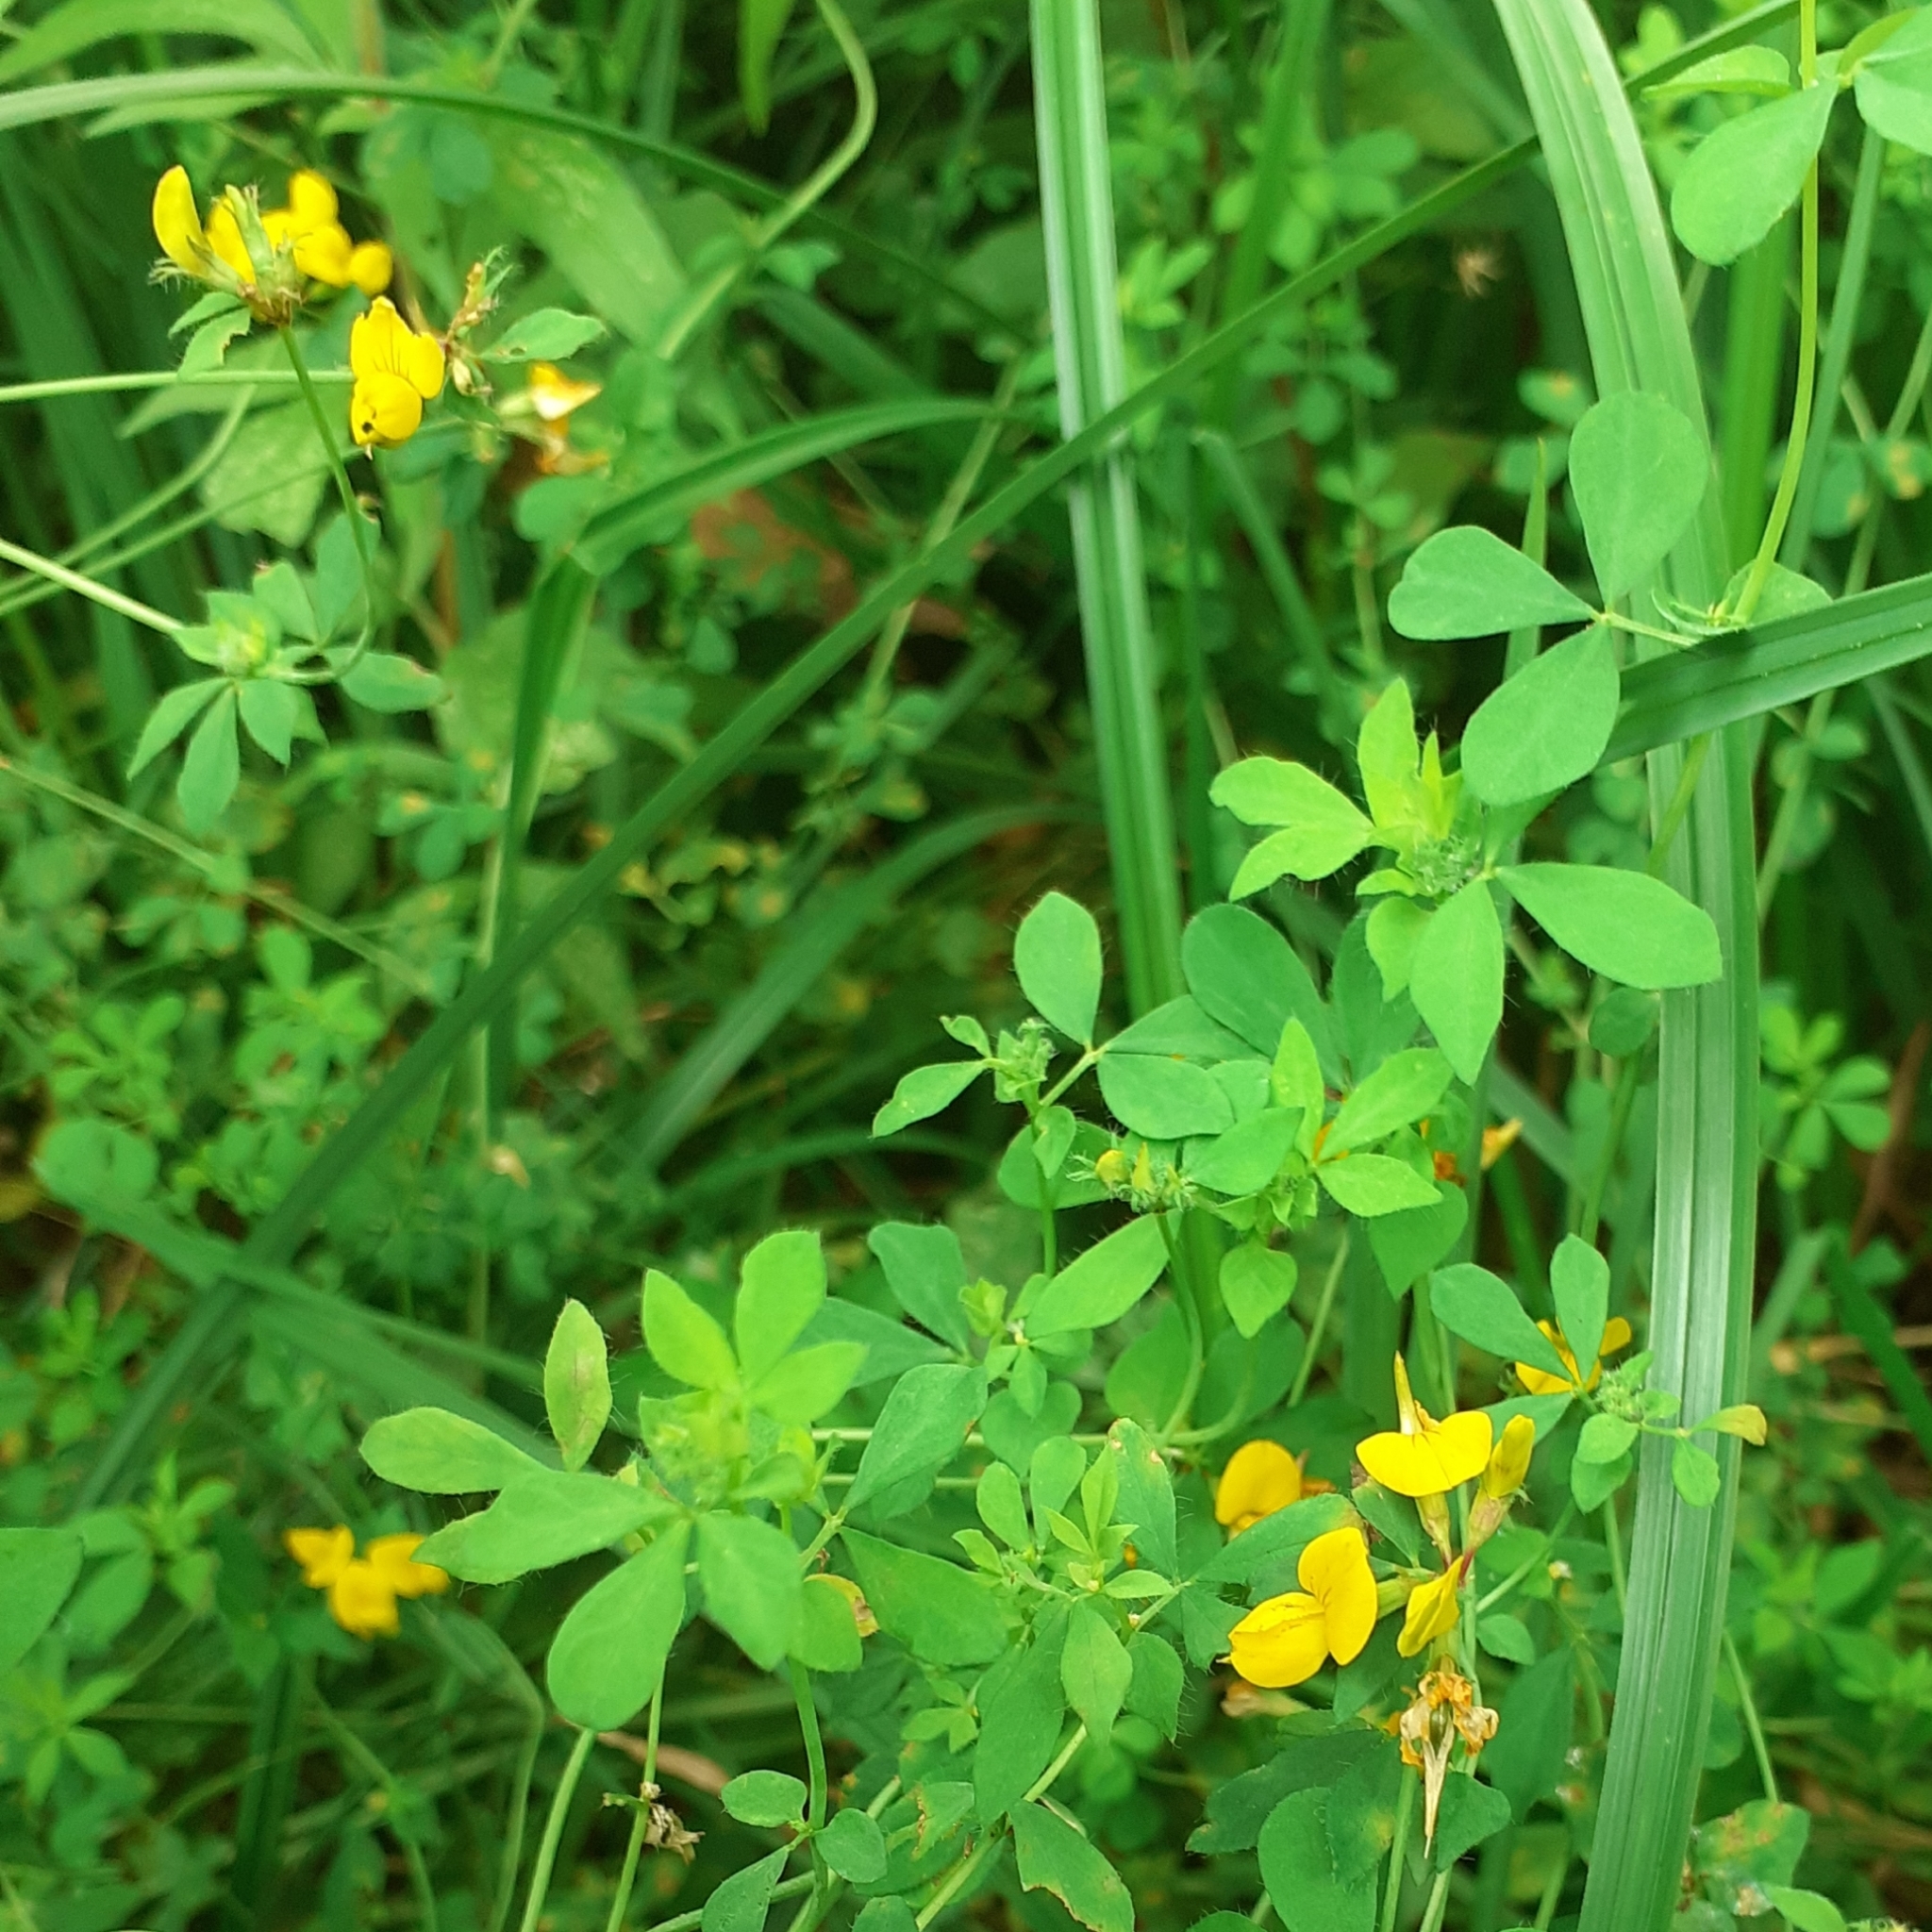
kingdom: Plantae
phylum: Tracheophyta
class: Magnoliopsida
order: Fabales
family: Fabaceae
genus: Lotus
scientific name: Lotus pedunculatus
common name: Greater birdsfoot-trefoil
